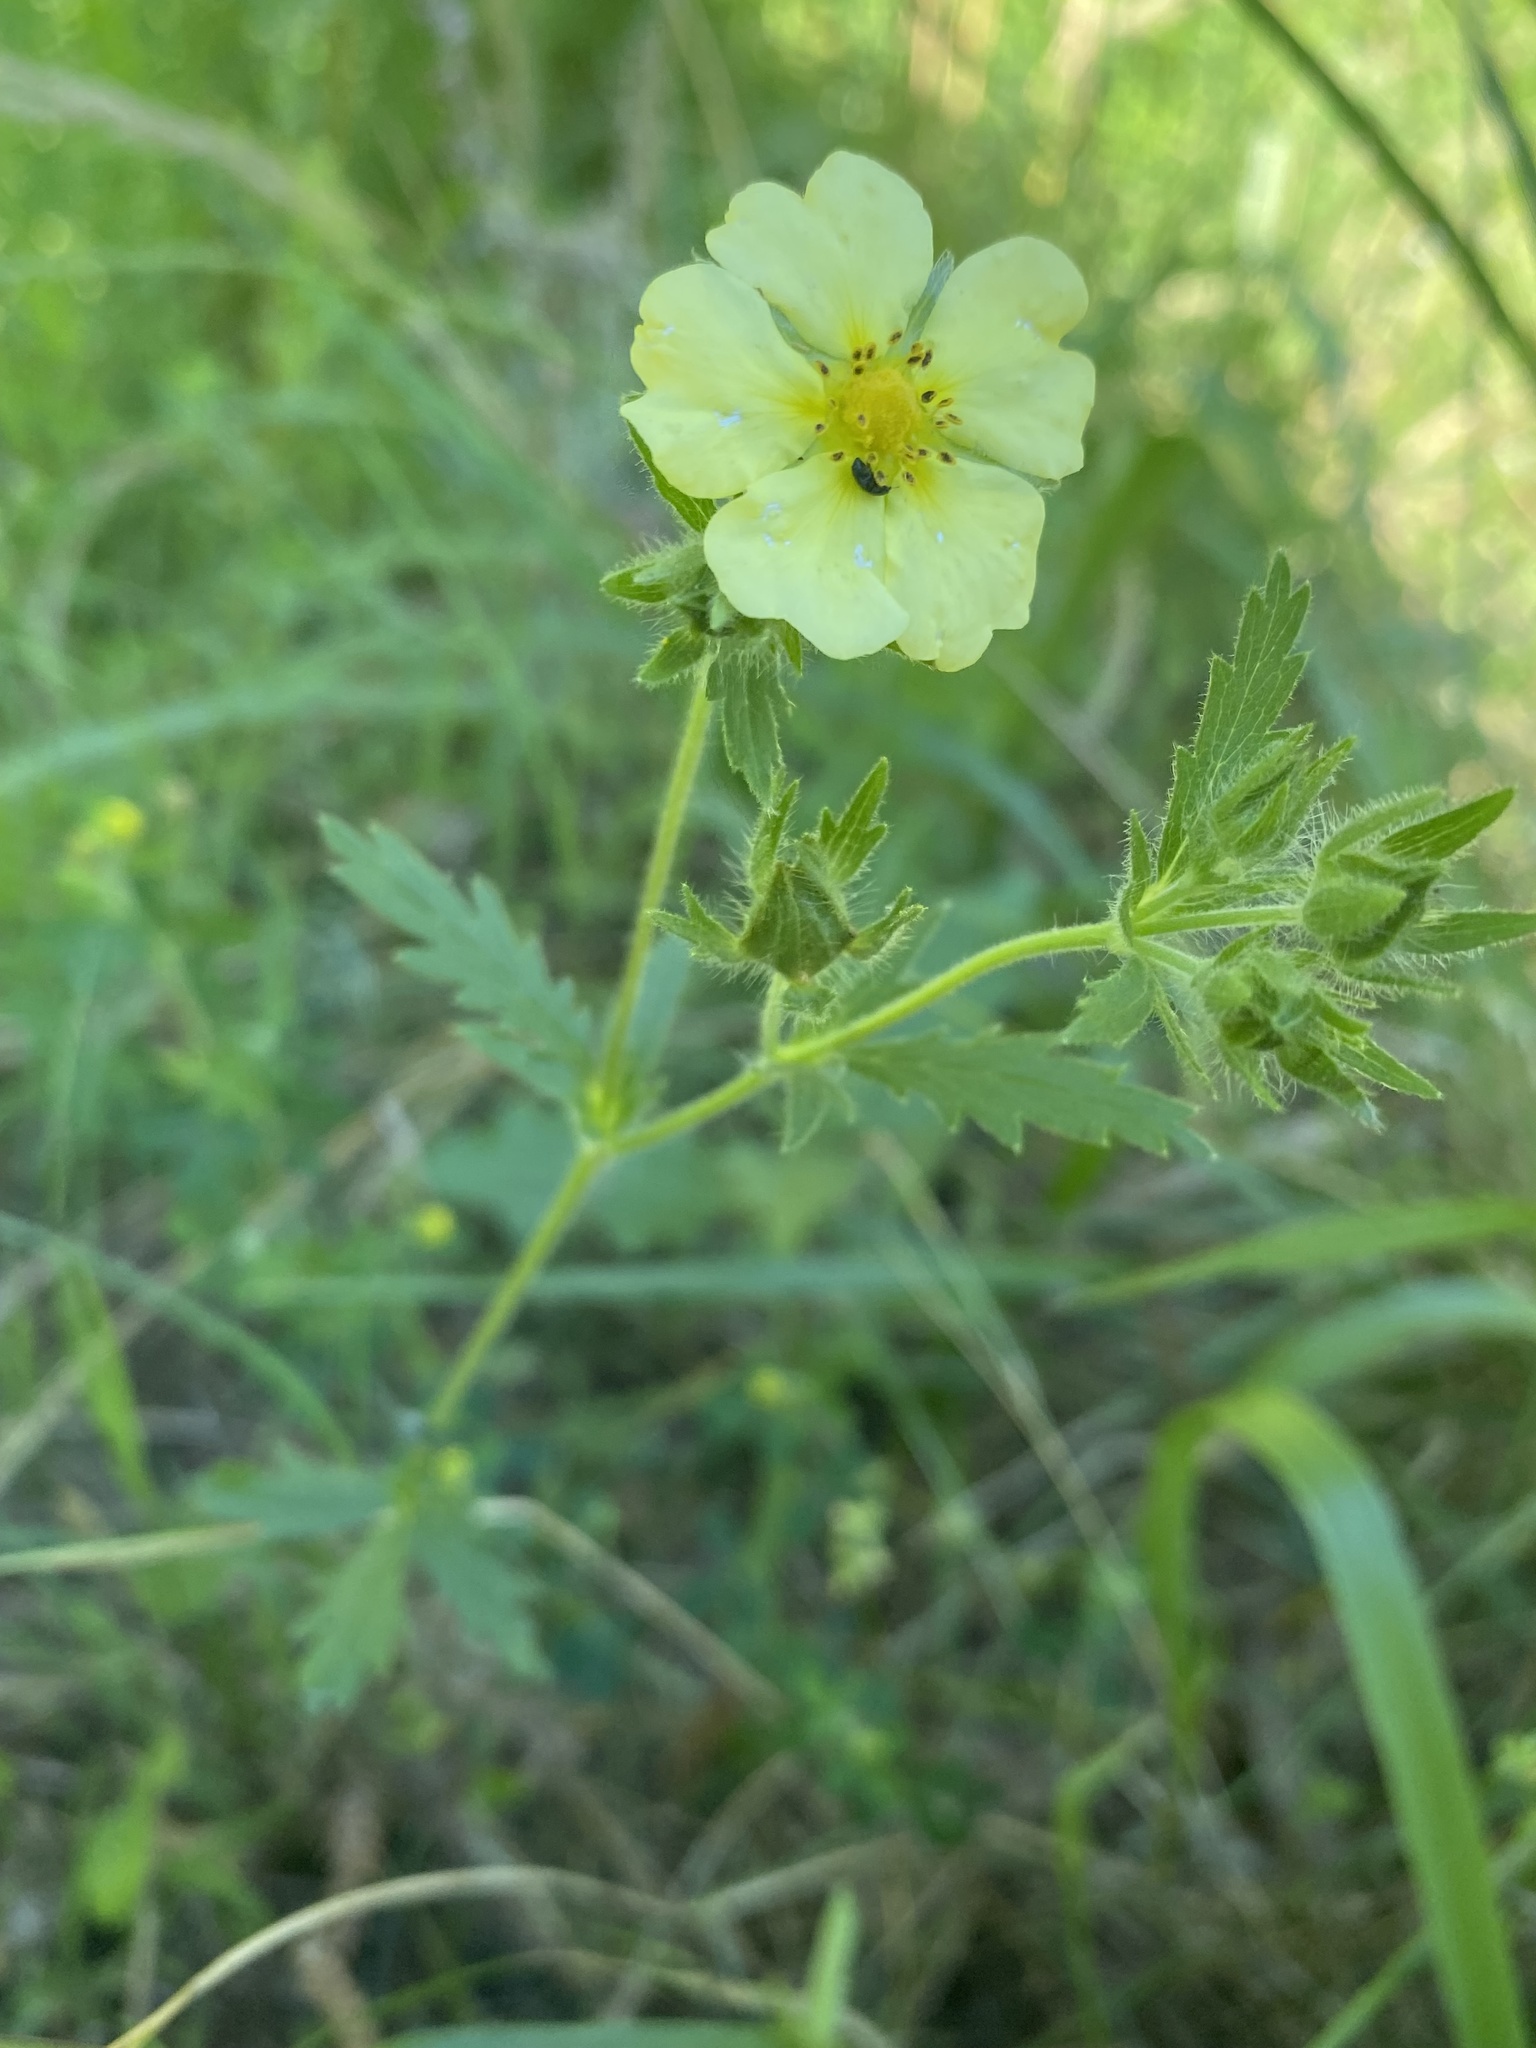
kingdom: Plantae
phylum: Tracheophyta
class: Magnoliopsida
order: Rosales
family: Rosaceae
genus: Potentilla
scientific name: Potentilla recta
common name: Sulphur cinquefoil
